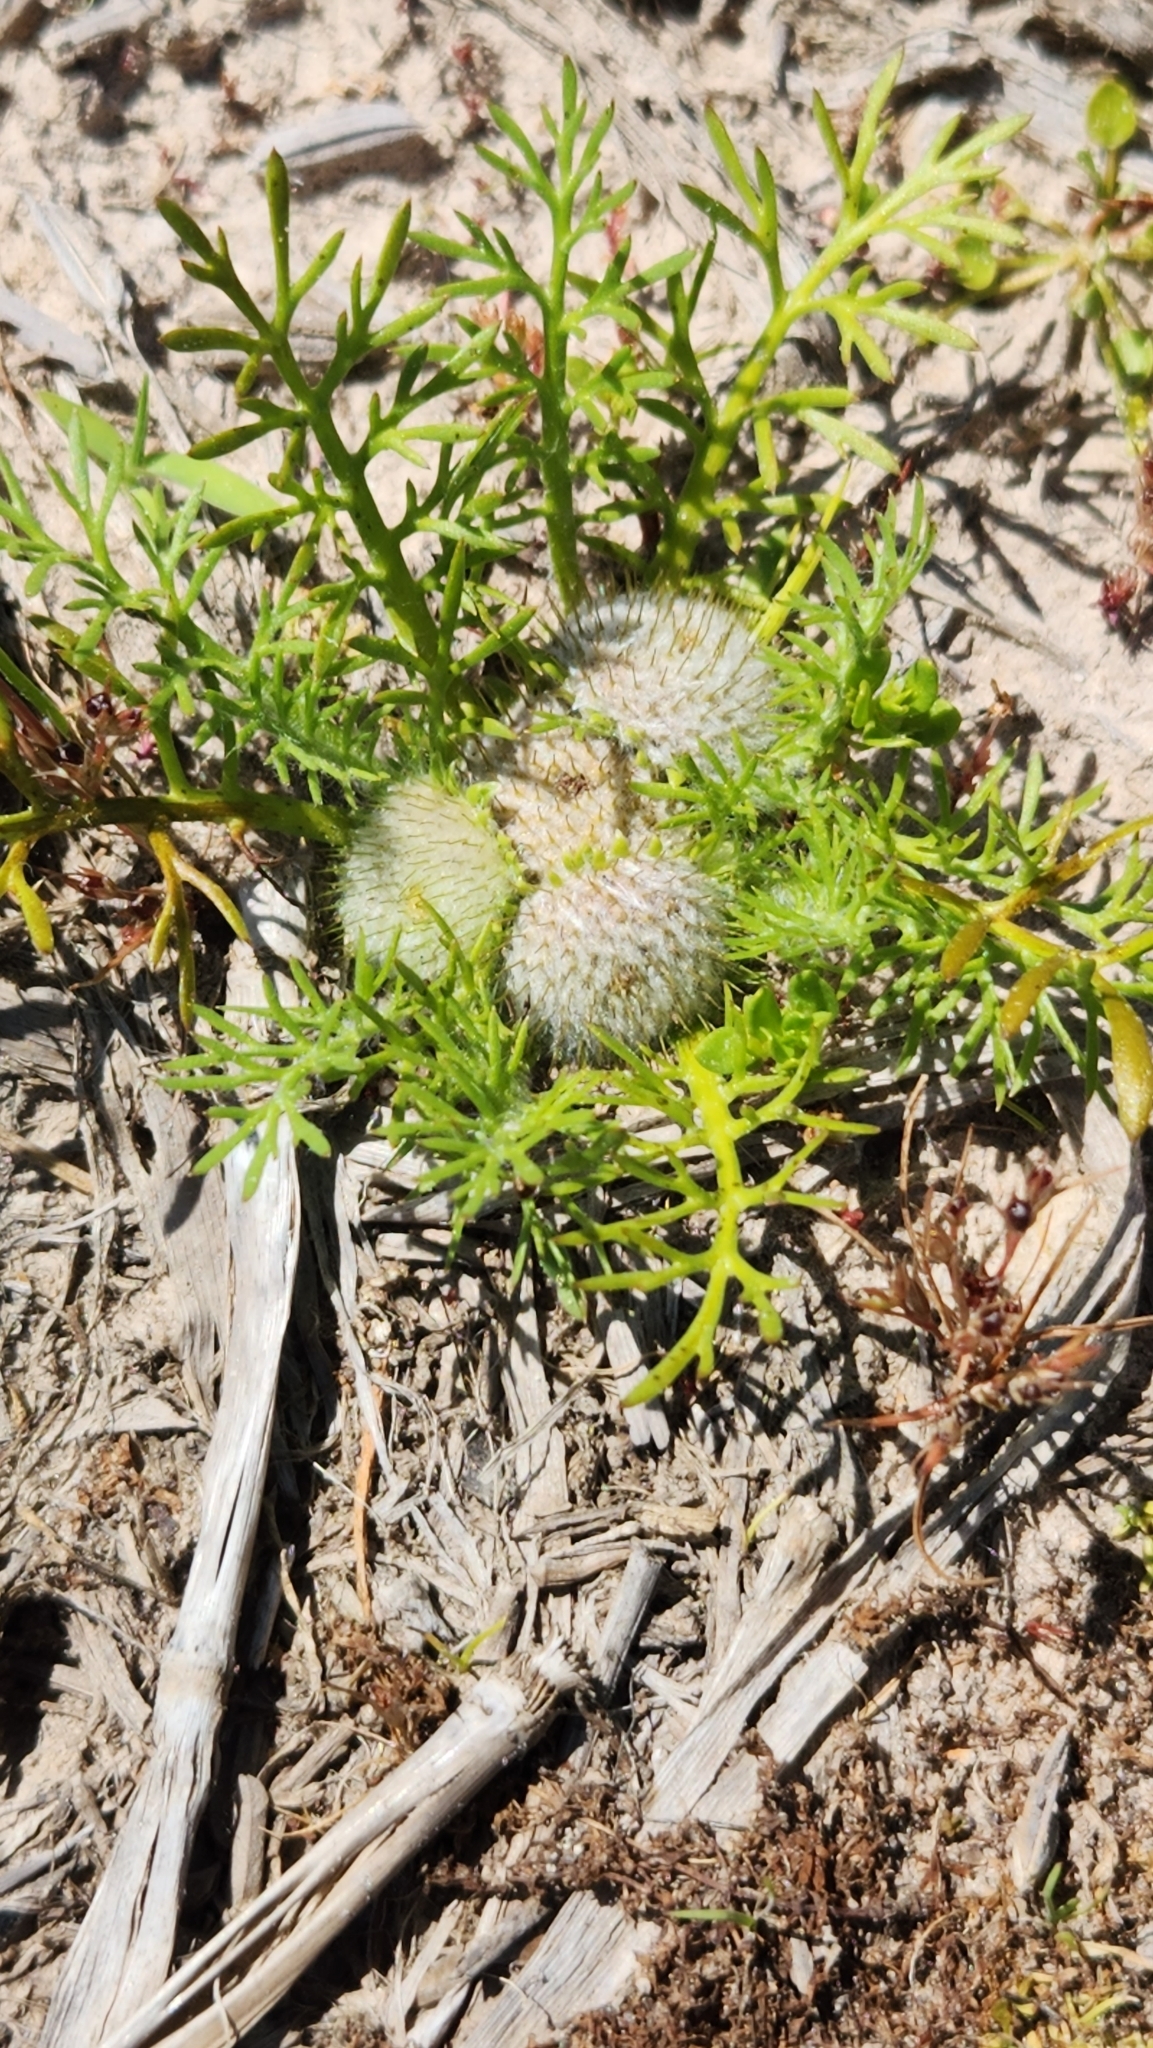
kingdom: Plantae
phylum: Tracheophyta
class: Magnoliopsida
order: Asterales
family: Asteraceae
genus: Soliva
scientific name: Soliva macrocephala
